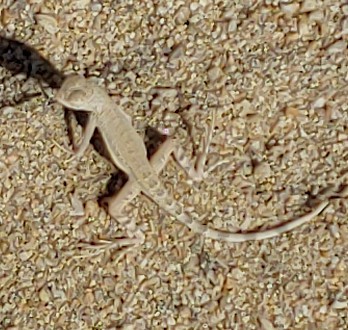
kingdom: Animalia
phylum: Chordata
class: Squamata
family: Phrynosomatidae
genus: Callisaurus
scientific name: Callisaurus draconoides
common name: Zebra-tailed lizard
